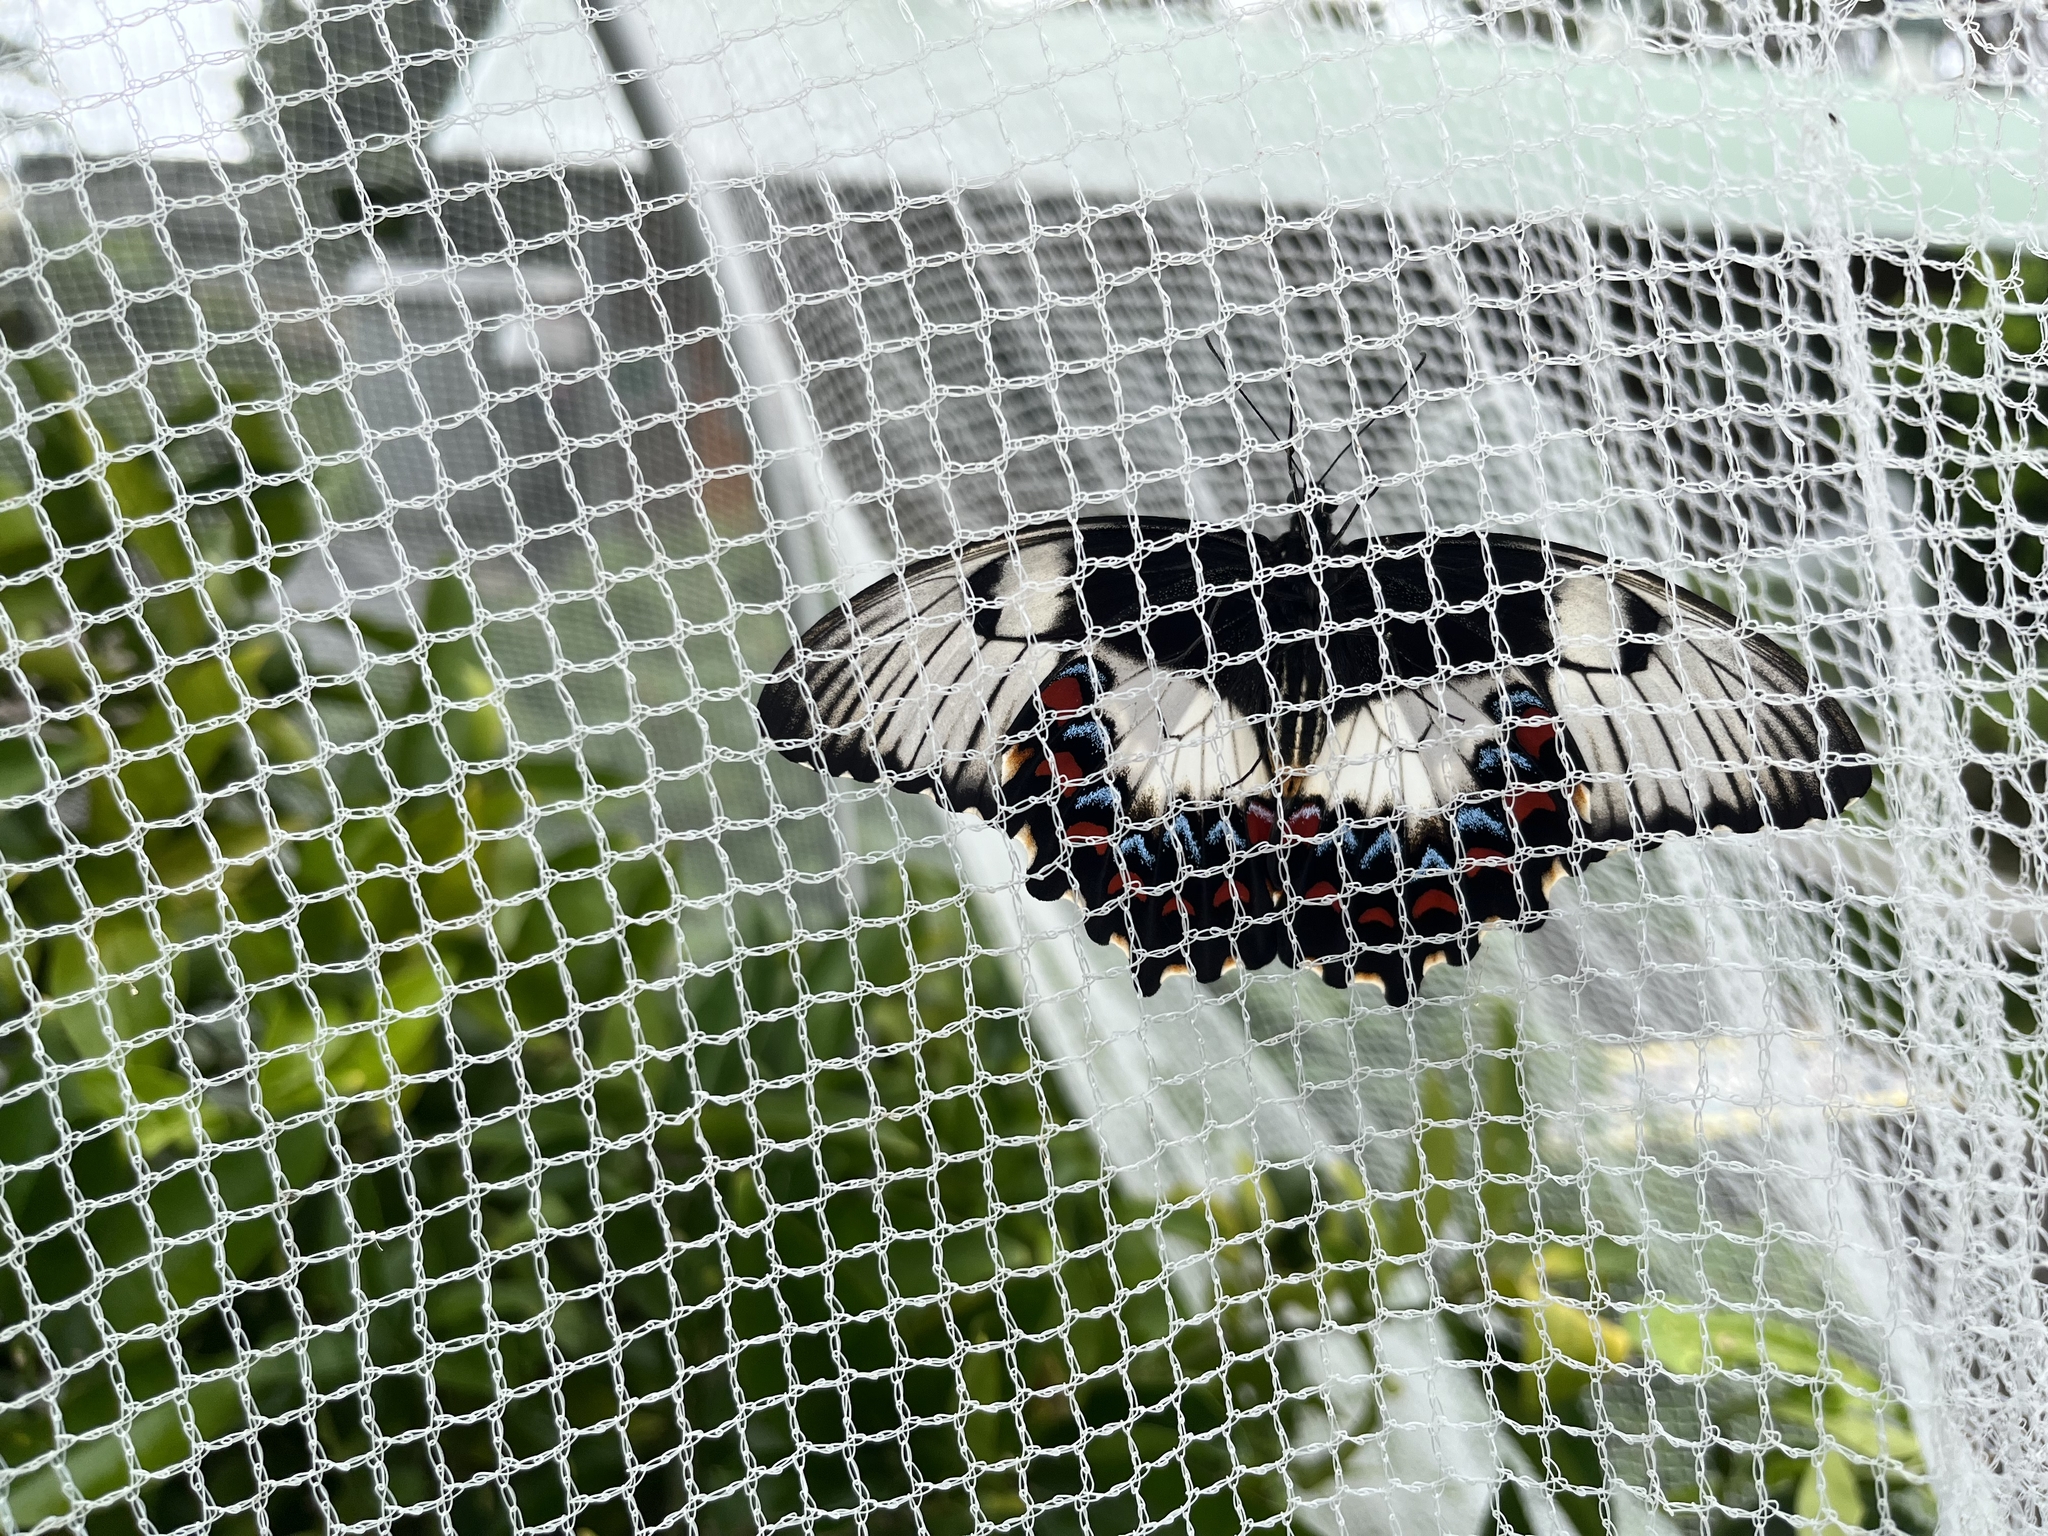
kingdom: Animalia
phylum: Arthropoda
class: Insecta
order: Lepidoptera
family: Papilionidae
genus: Papilio
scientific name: Papilio aegeus
